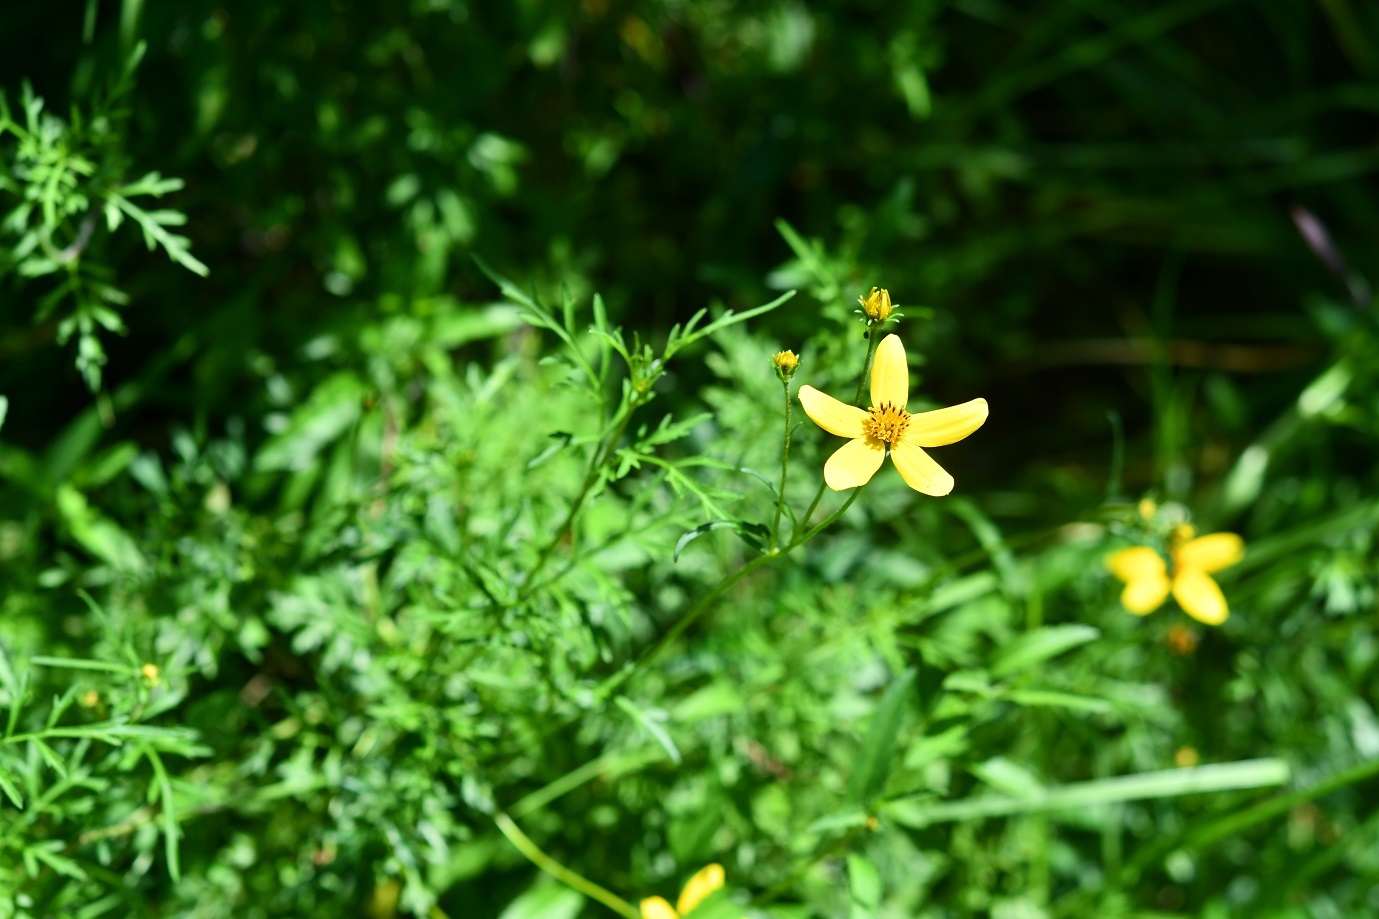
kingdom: Plantae
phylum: Tracheophyta
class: Magnoliopsida
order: Asterales
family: Asteraceae
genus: Bidens
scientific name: Bidens triplinervia
